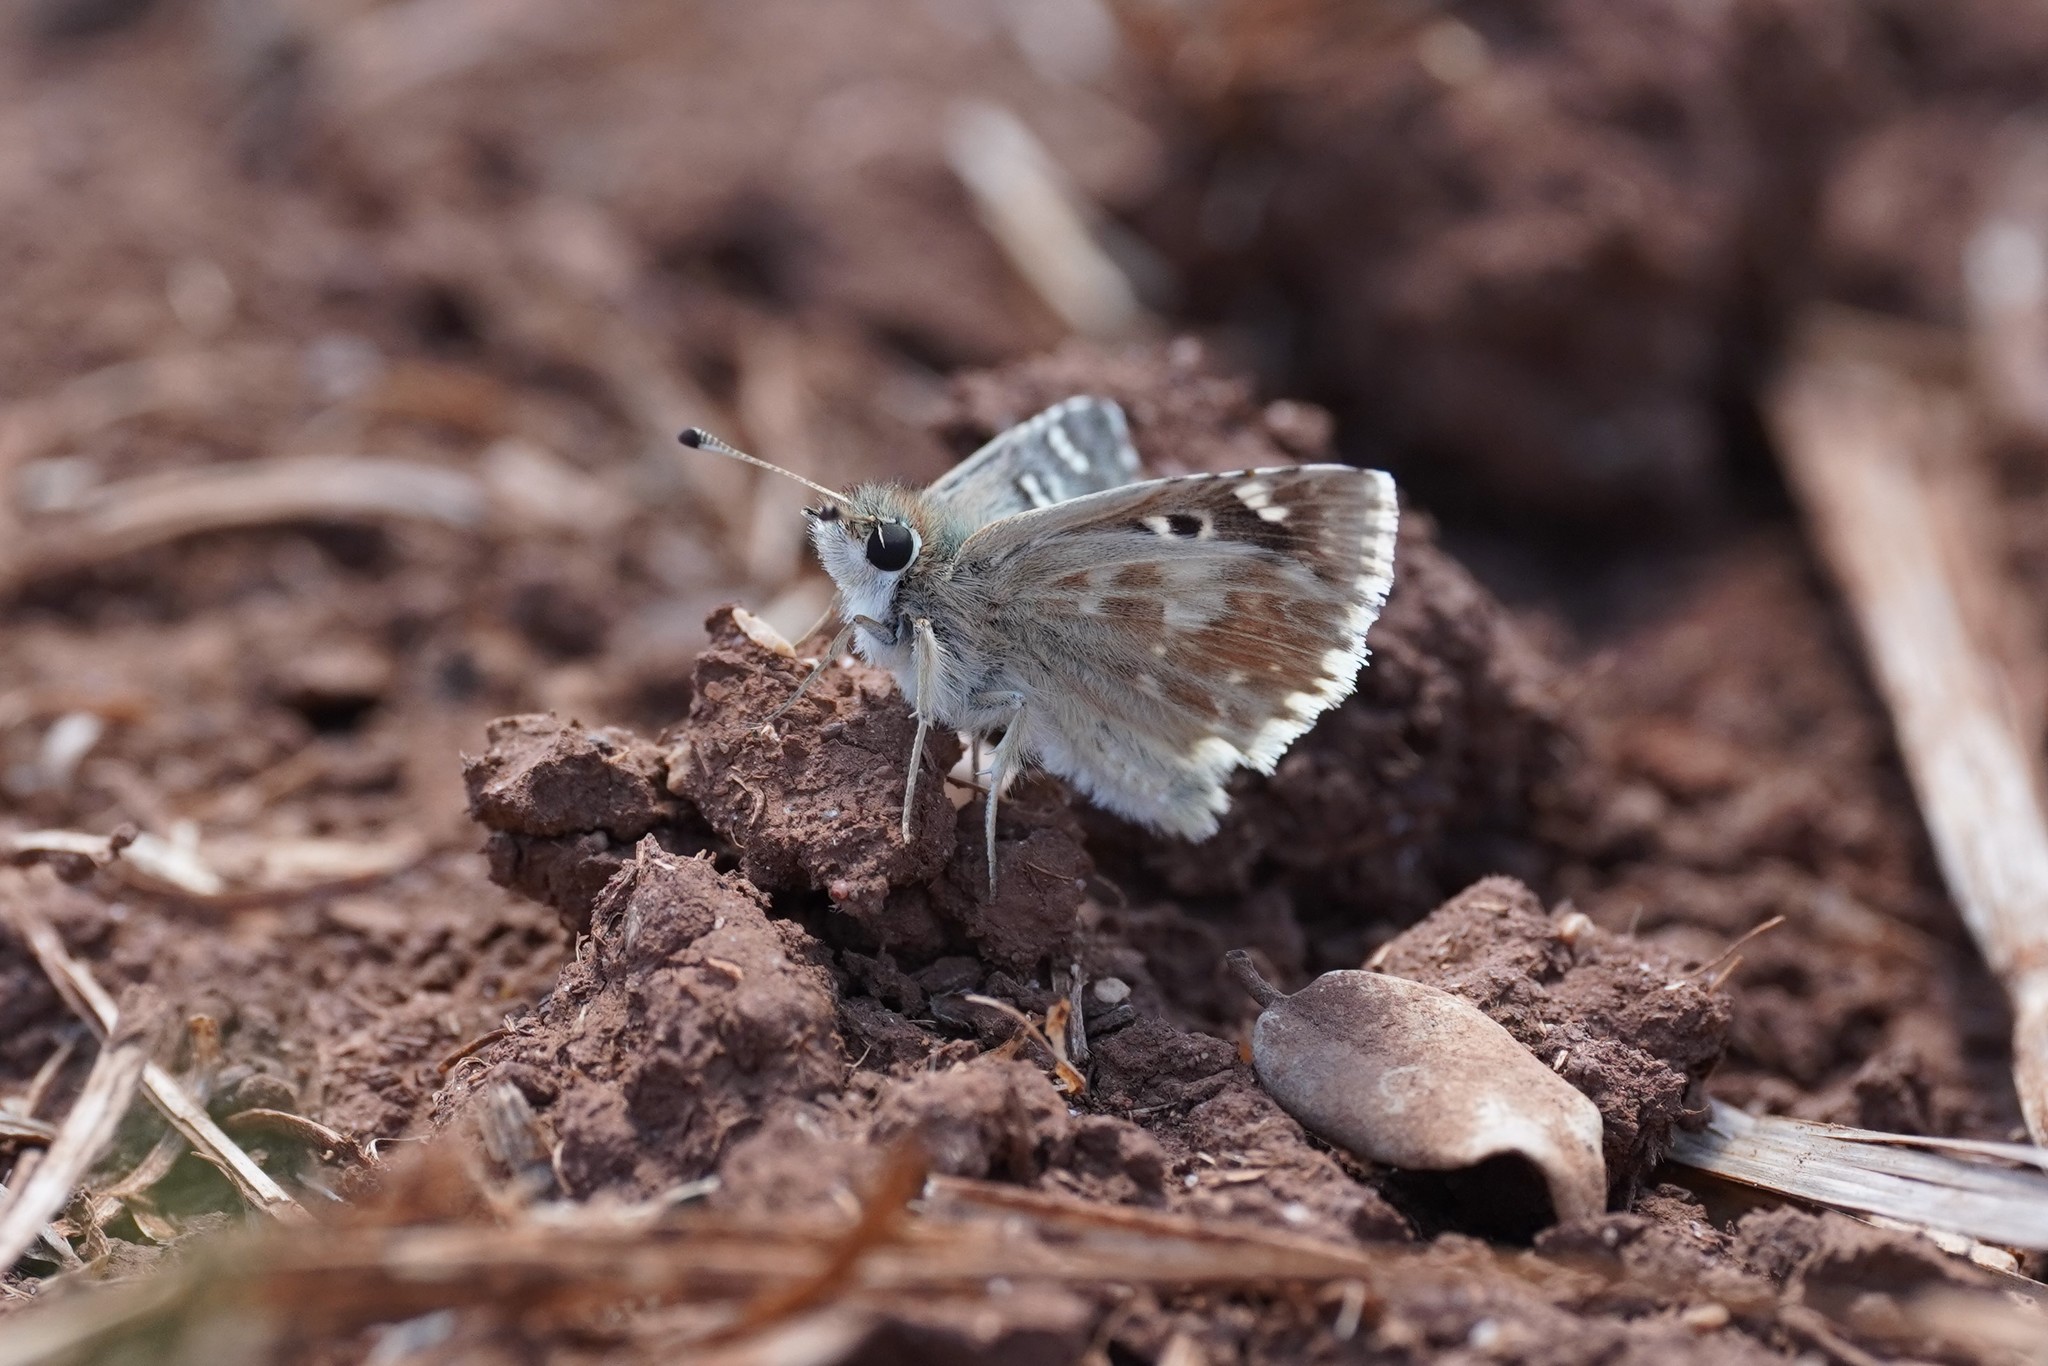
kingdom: Animalia
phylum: Arthropoda
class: Insecta
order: Lepidoptera
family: Hesperiidae
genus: Syrichtus
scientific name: Syrichtus Muschampia proto
